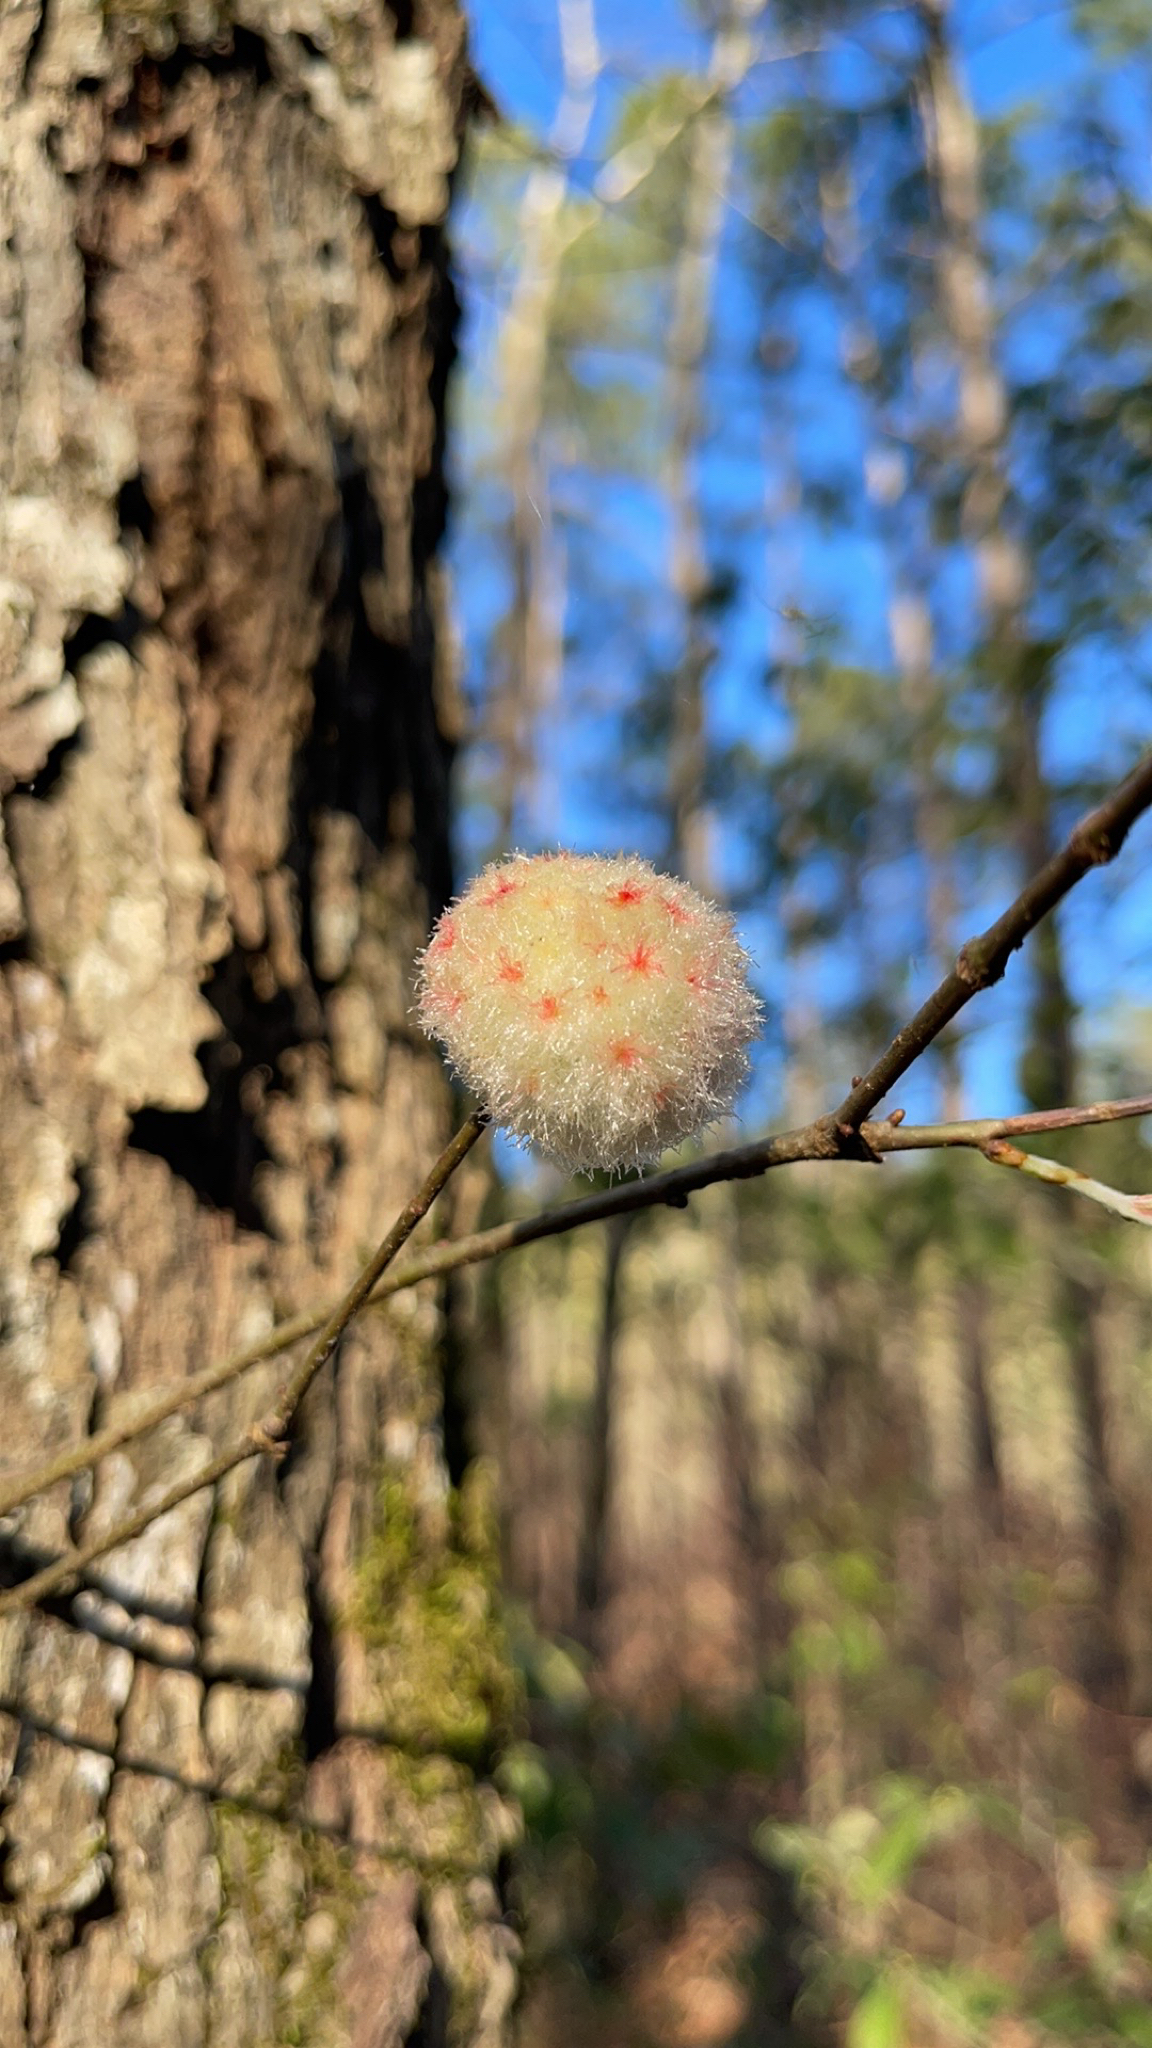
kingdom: Animalia
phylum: Arthropoda
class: Insecta
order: Hymenoptera
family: Cynipidae
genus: Callirhytis
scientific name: Callirhytis
